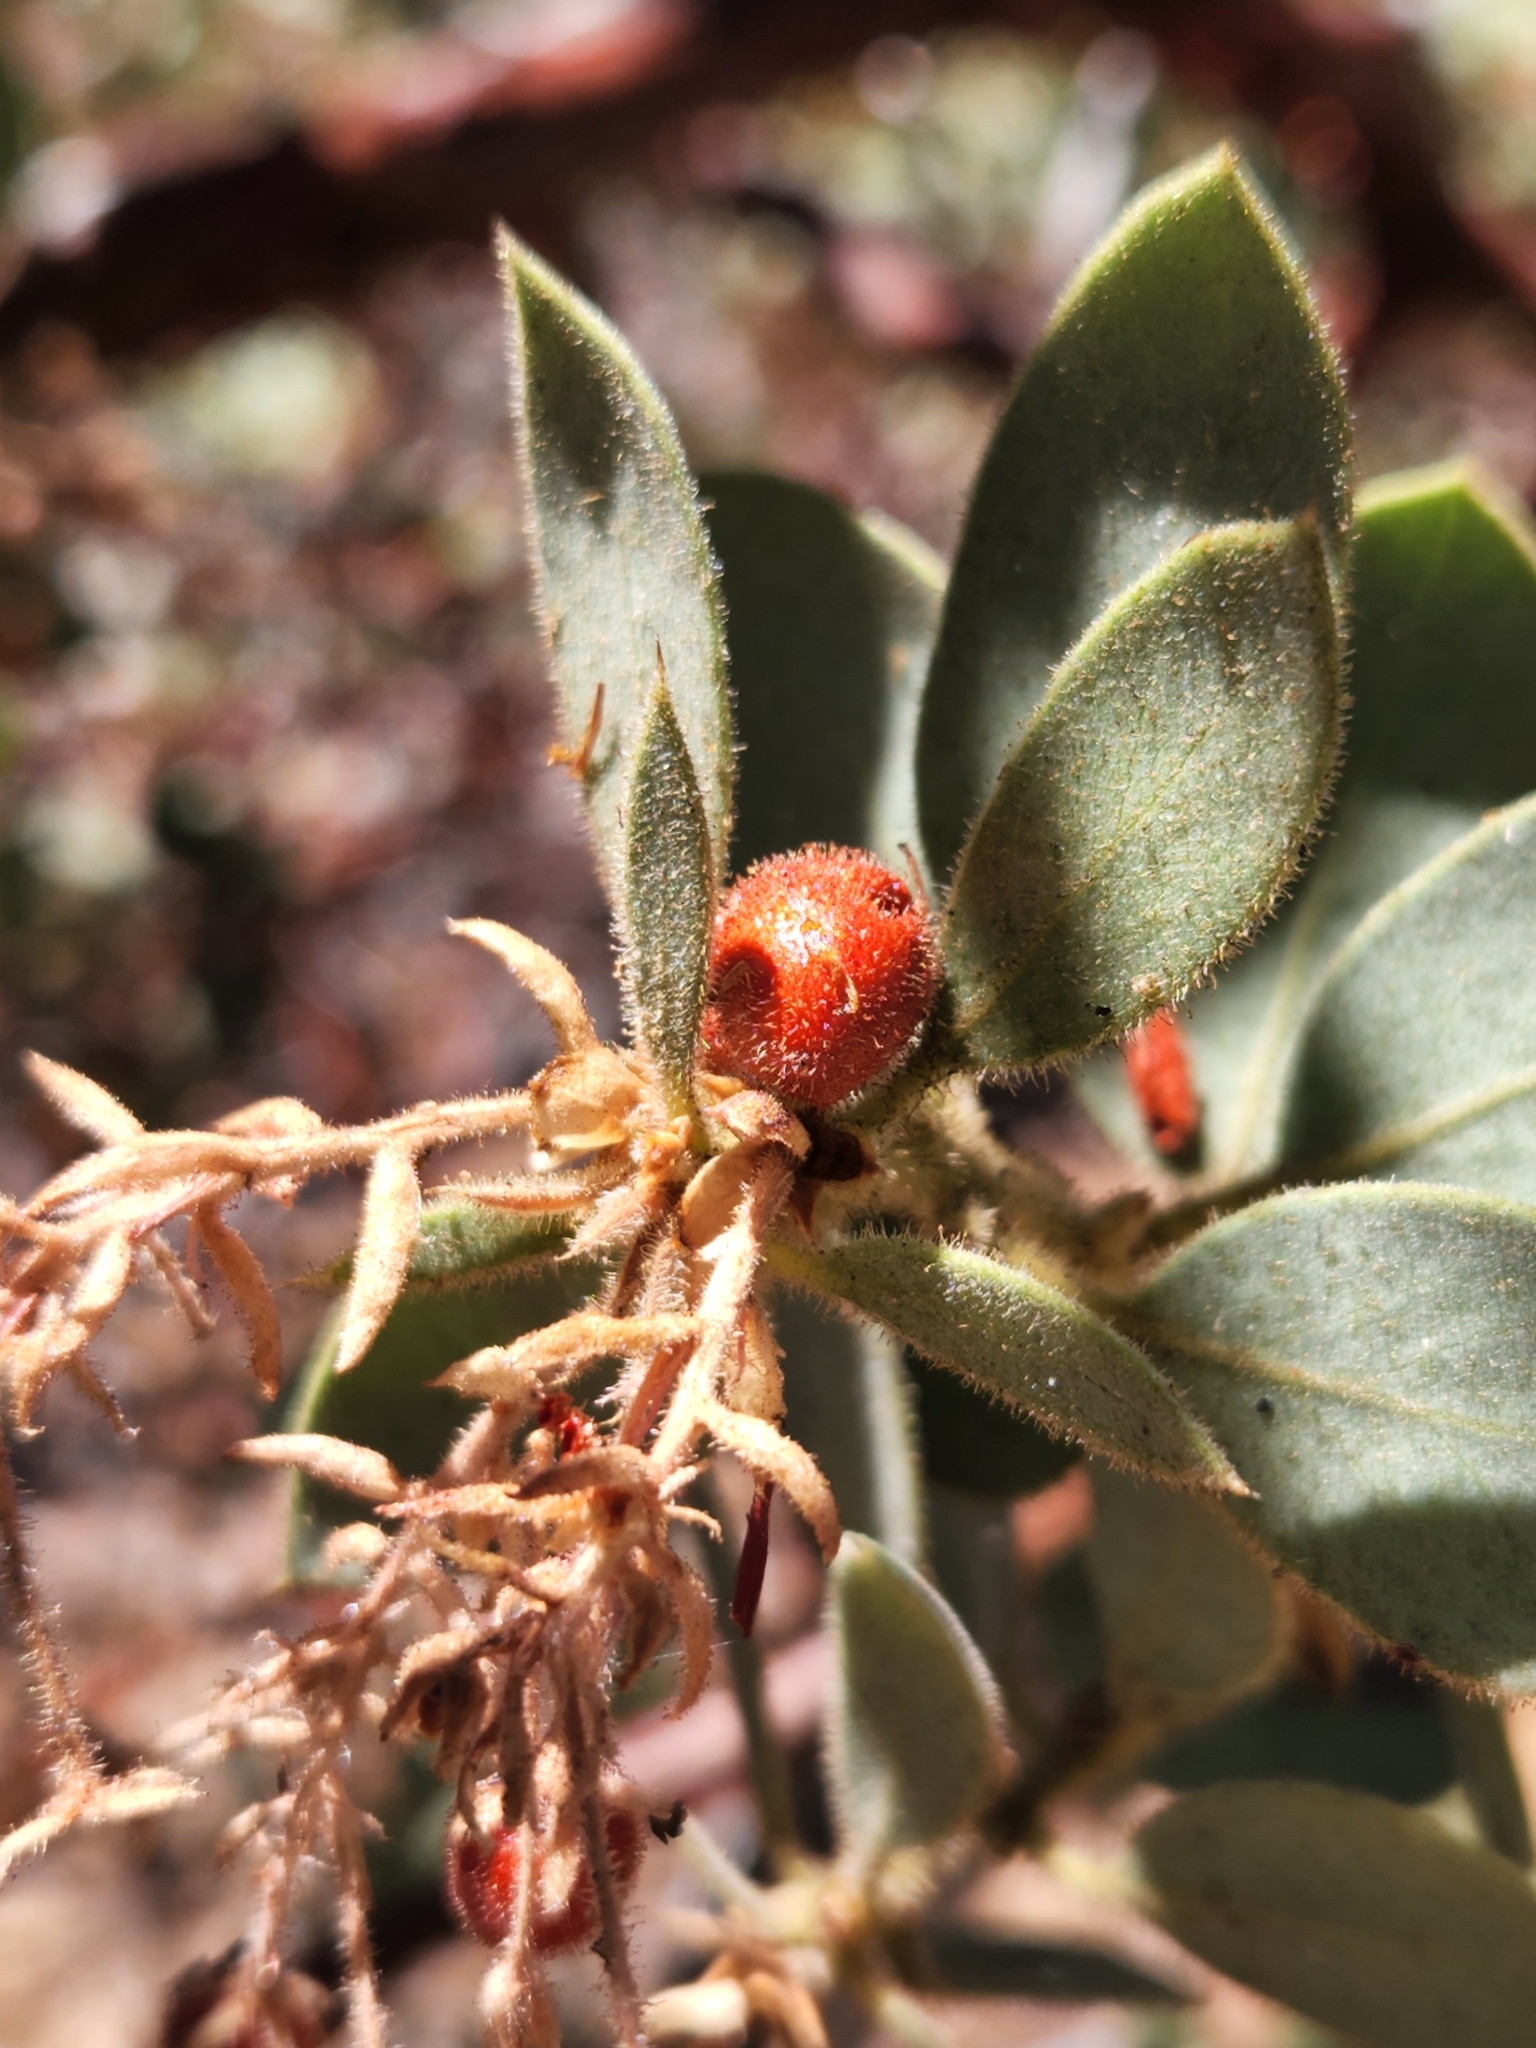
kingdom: Plantae
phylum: Tracheophyta
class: Magnoliopsida
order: Ericales
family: Ericaceae
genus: Arctostaphylos
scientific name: Arctostaphylos pringlei
